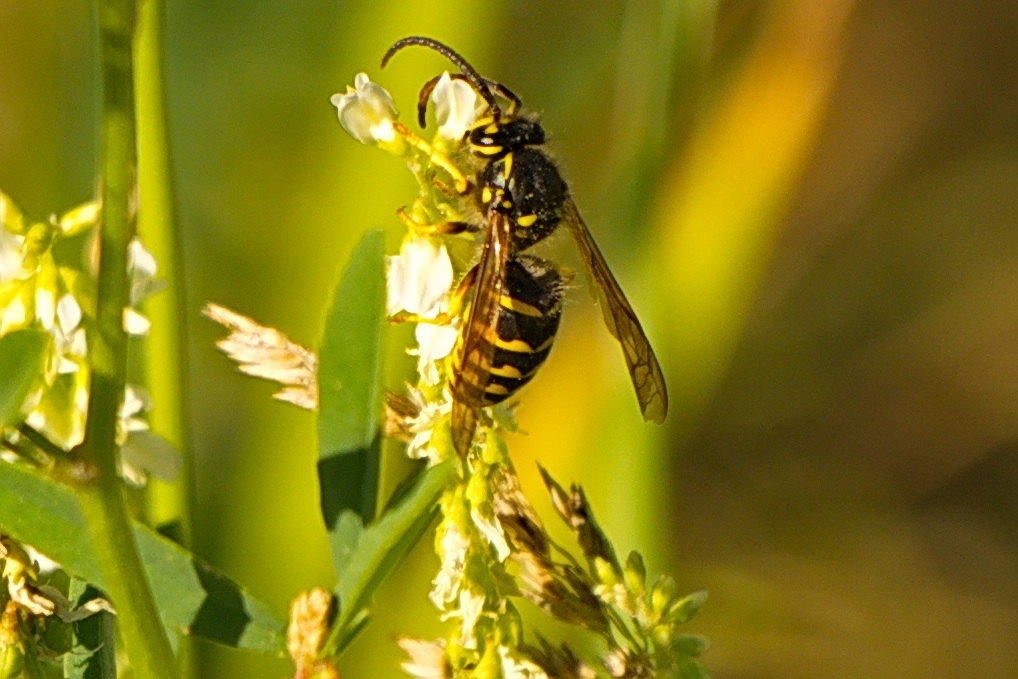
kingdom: Animalia
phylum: Arthropoda
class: Insecta
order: Hymenoptera
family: Vespidae
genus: Dolichovespula
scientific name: Dolichovespula arenaria
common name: Aerial yellowjacket
